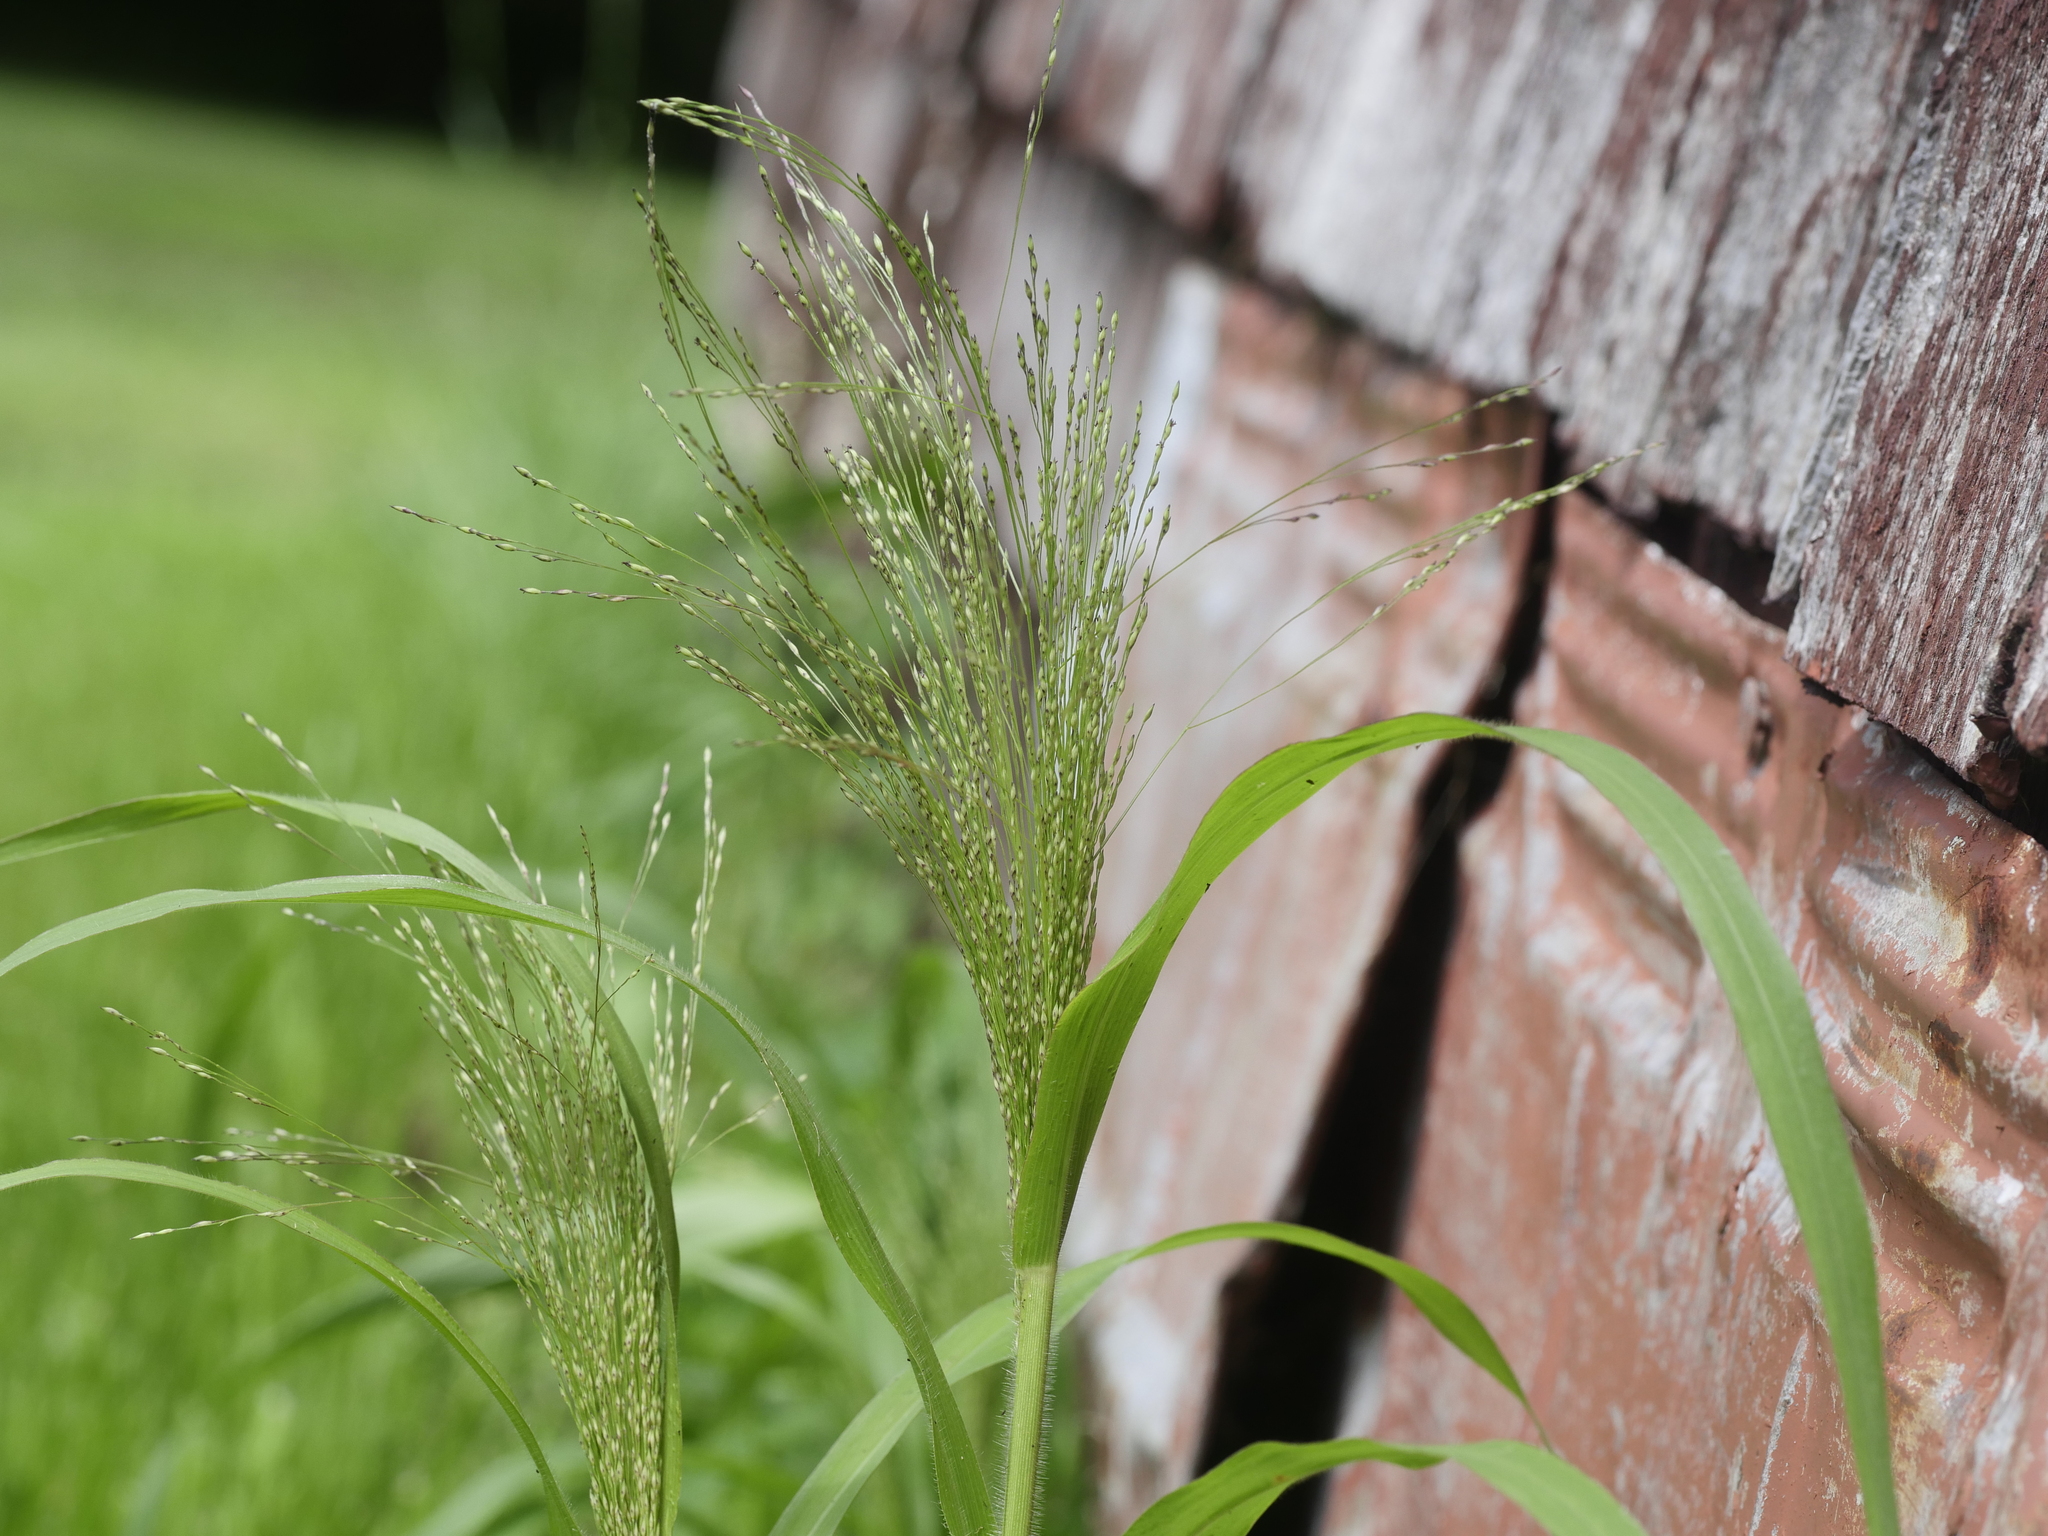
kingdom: Plantae
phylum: Tracheophyta
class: Liliopsida
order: Poales
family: Poaceae
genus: Panicum
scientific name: Panicum capillare
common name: Witch-grass
